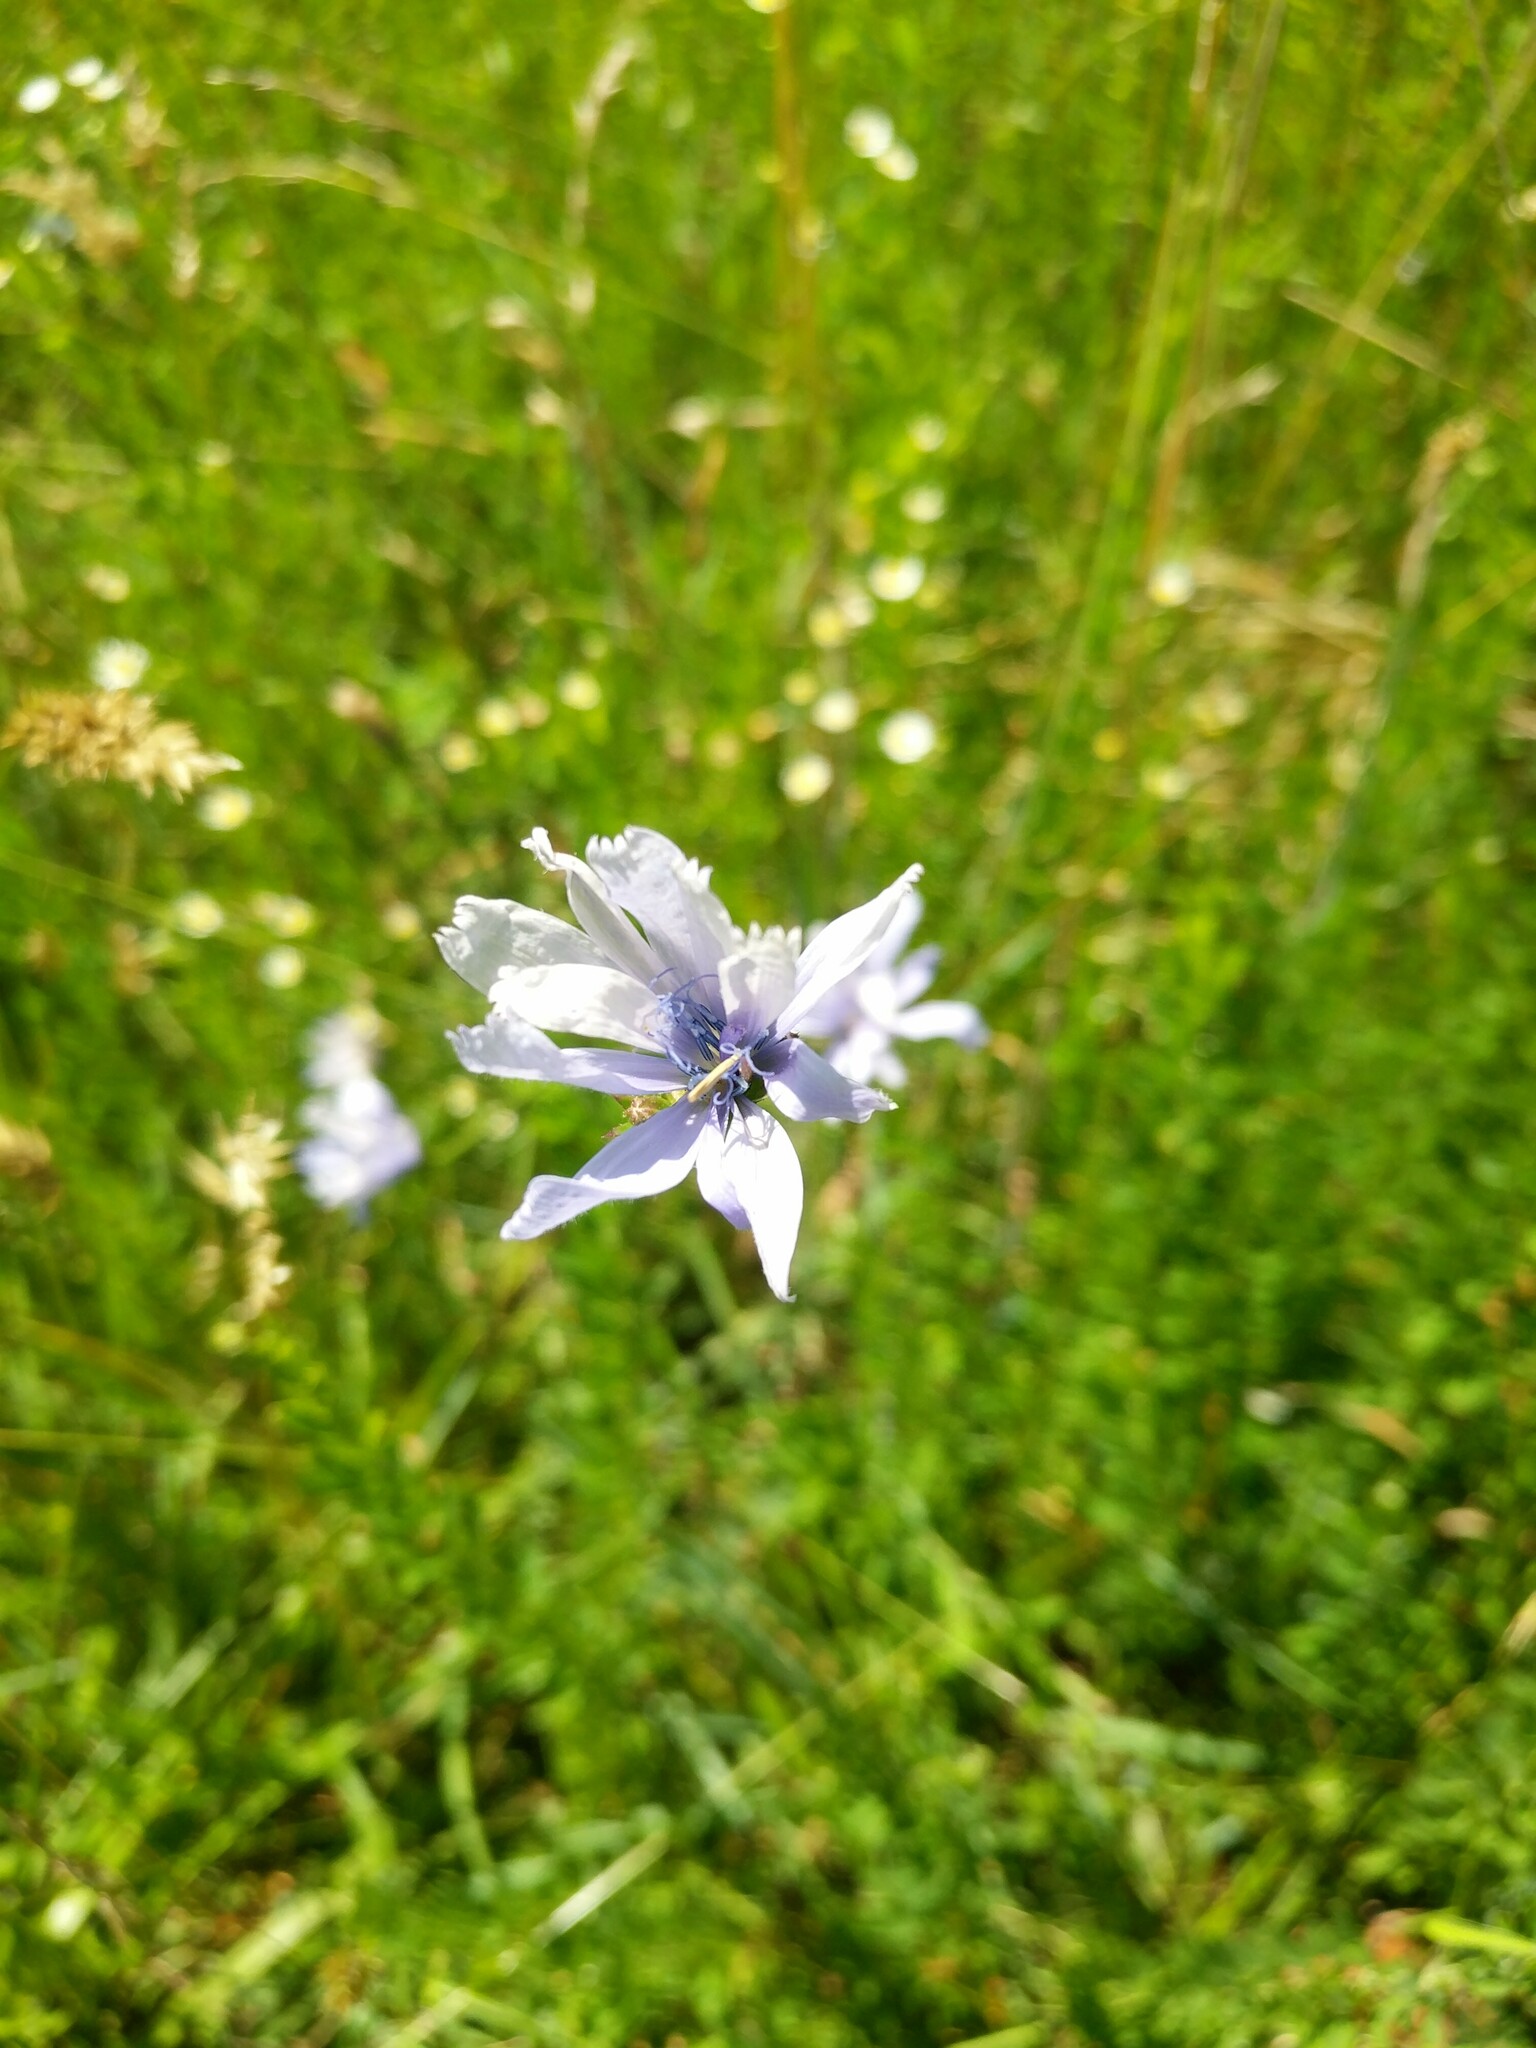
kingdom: Plantae
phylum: Tracheophyta
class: Magnoliopsida
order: Asterales
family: Asteraceae
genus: Cichorium
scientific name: Cichorium intybus
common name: Chicory
